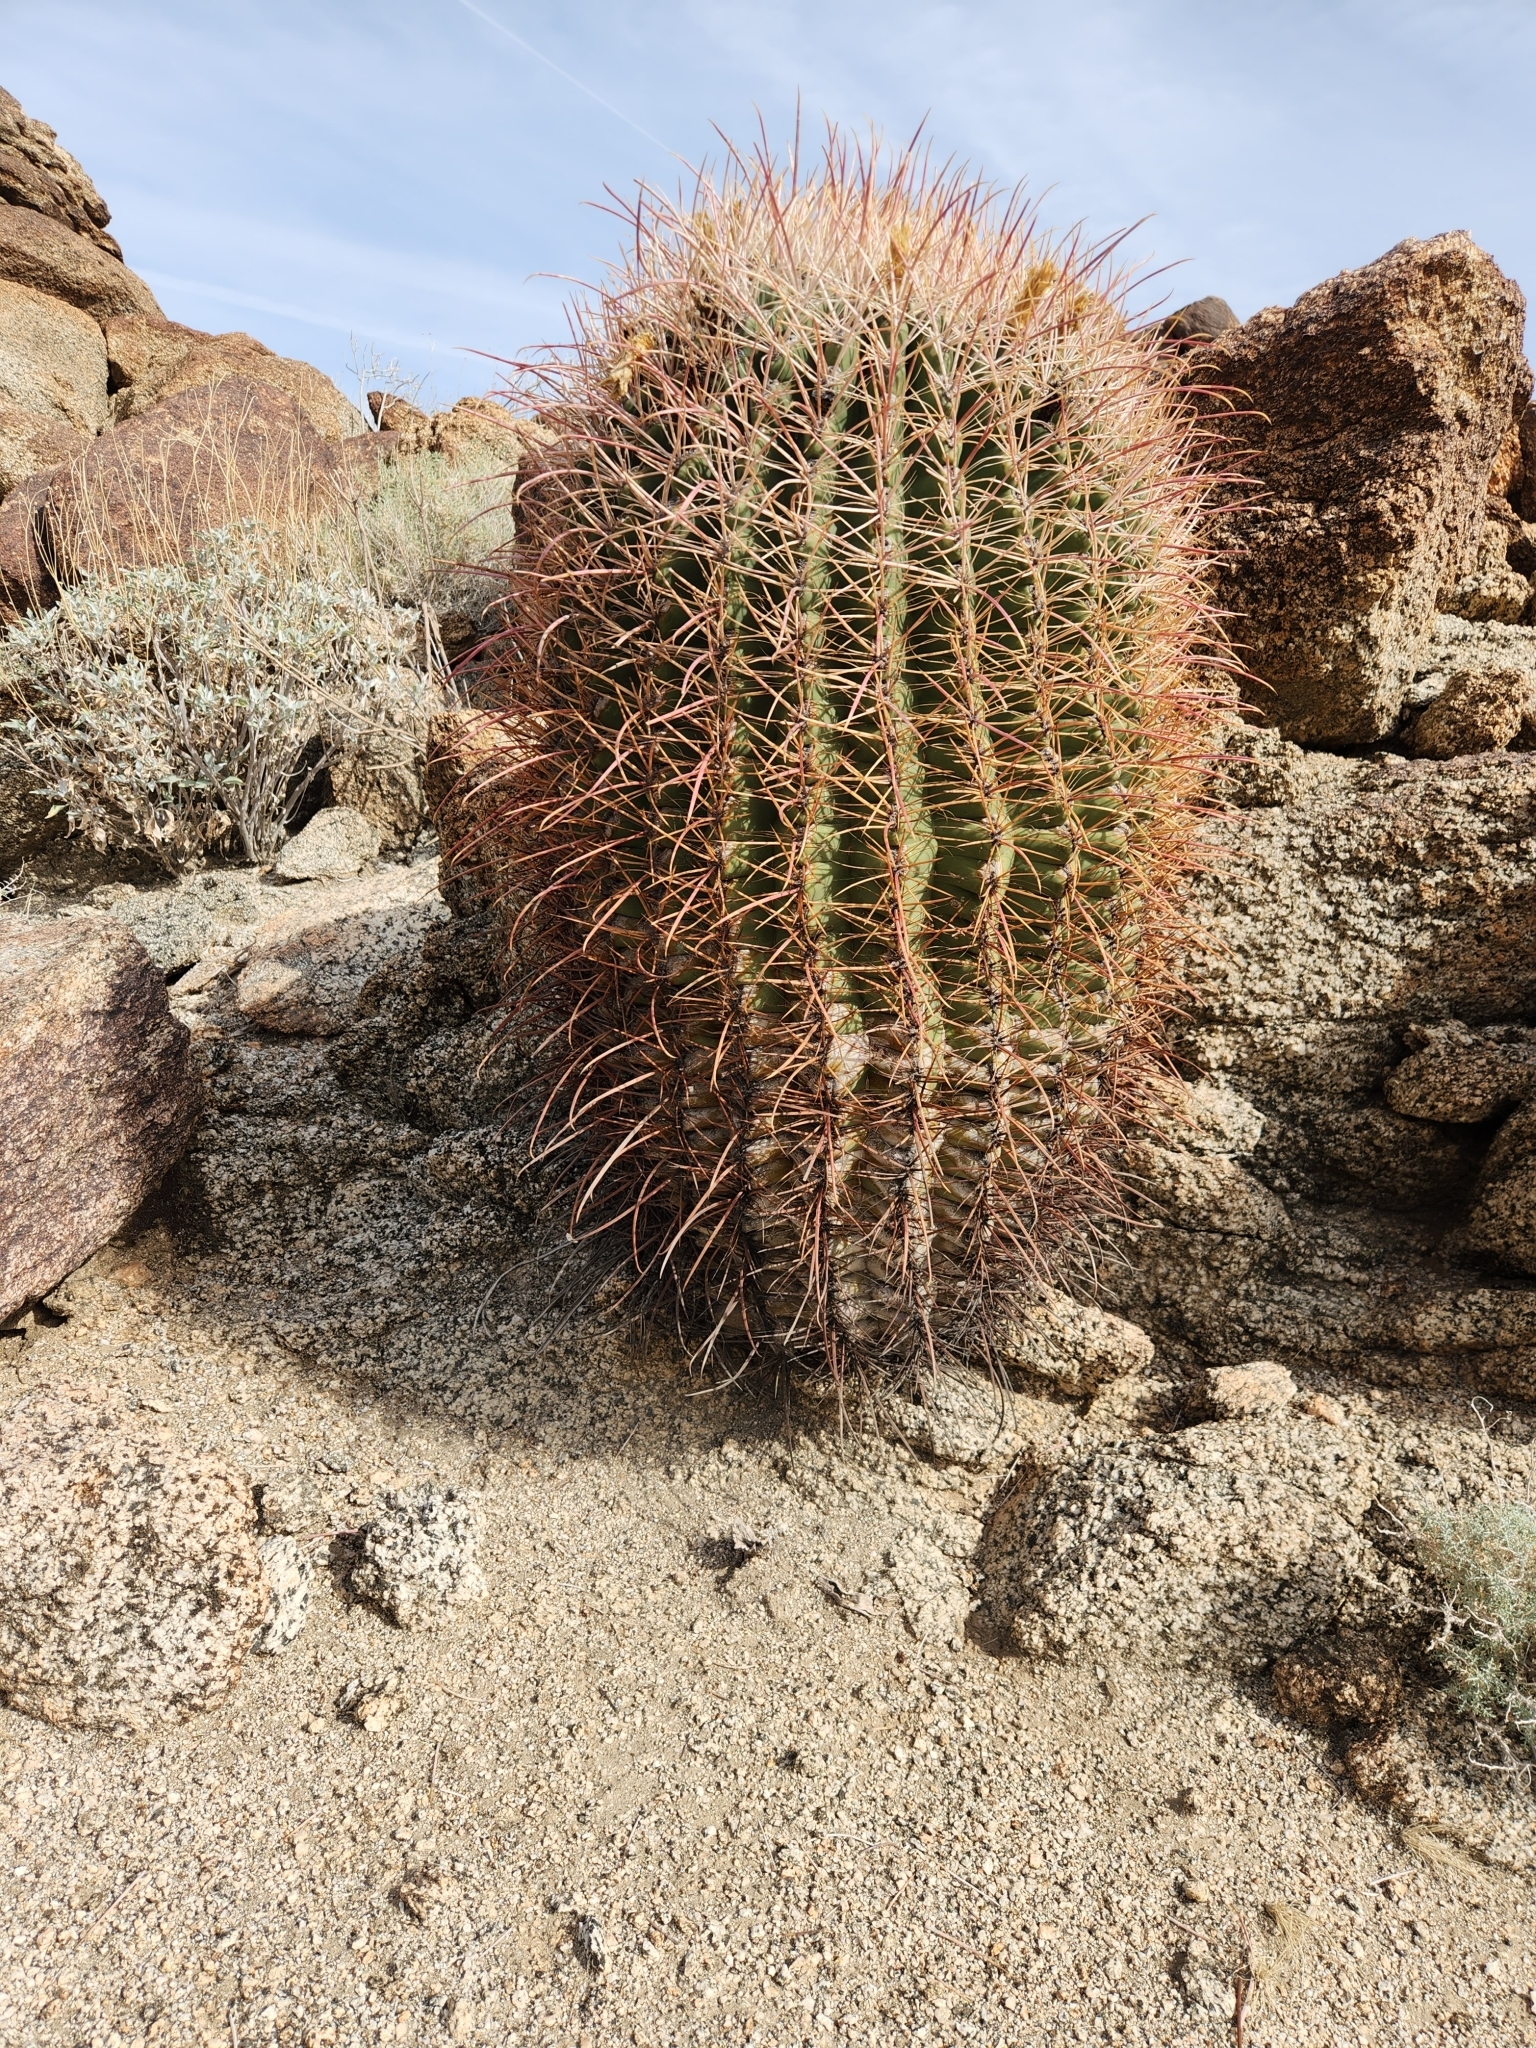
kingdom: Plantae
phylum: Tracheophyta
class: Magnoliopsida
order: Caryophyllales
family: Cactaceae
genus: Ferocactus
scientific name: Ferocactus cylindraceus
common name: California barrel cactus
